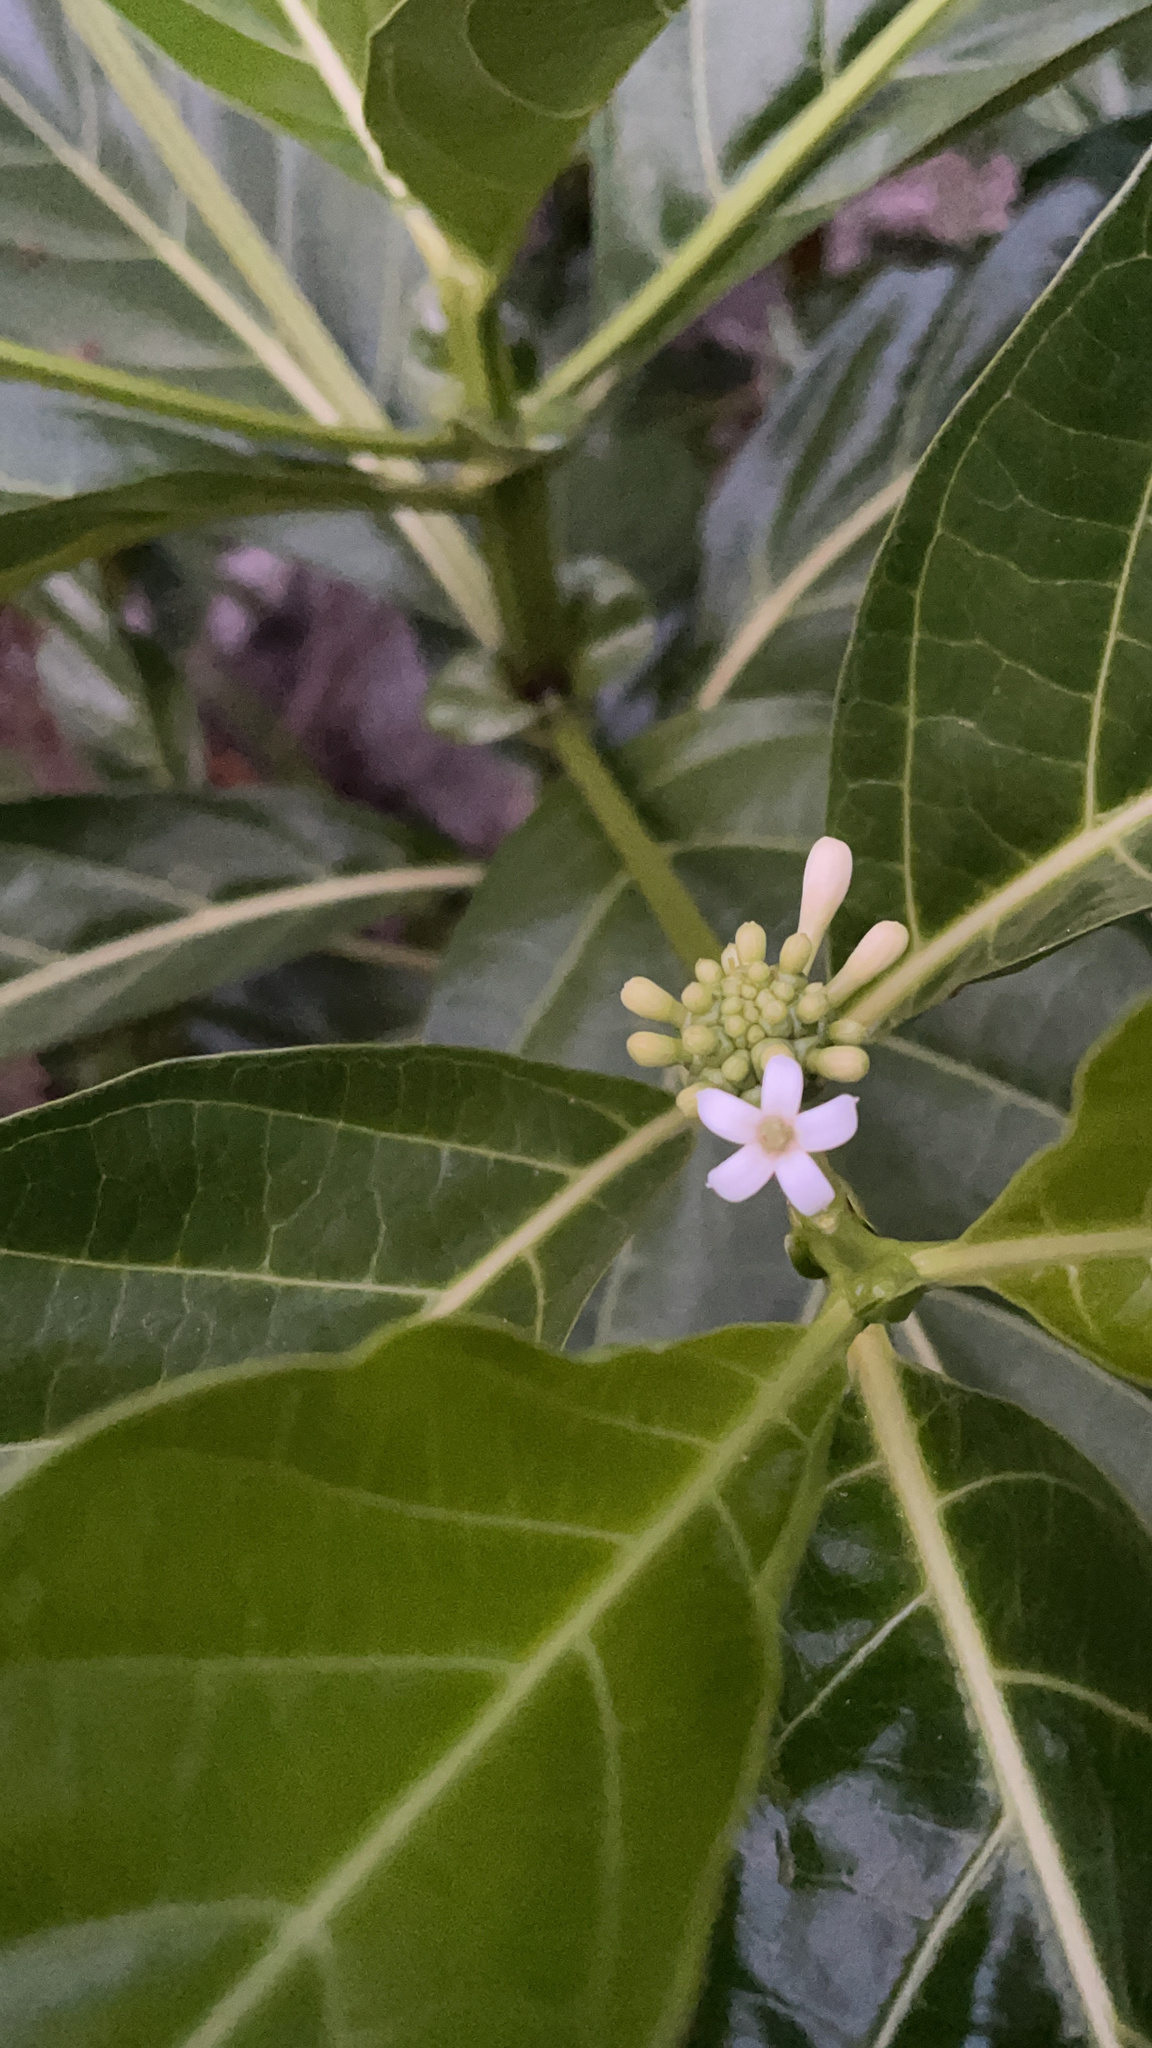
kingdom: Plantae
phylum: Tracheophyta
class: Magnoliopsida
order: Gentianales
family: Rubiaceae
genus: Morinda
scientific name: Morinda citrifolia
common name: Indian-mulberry
